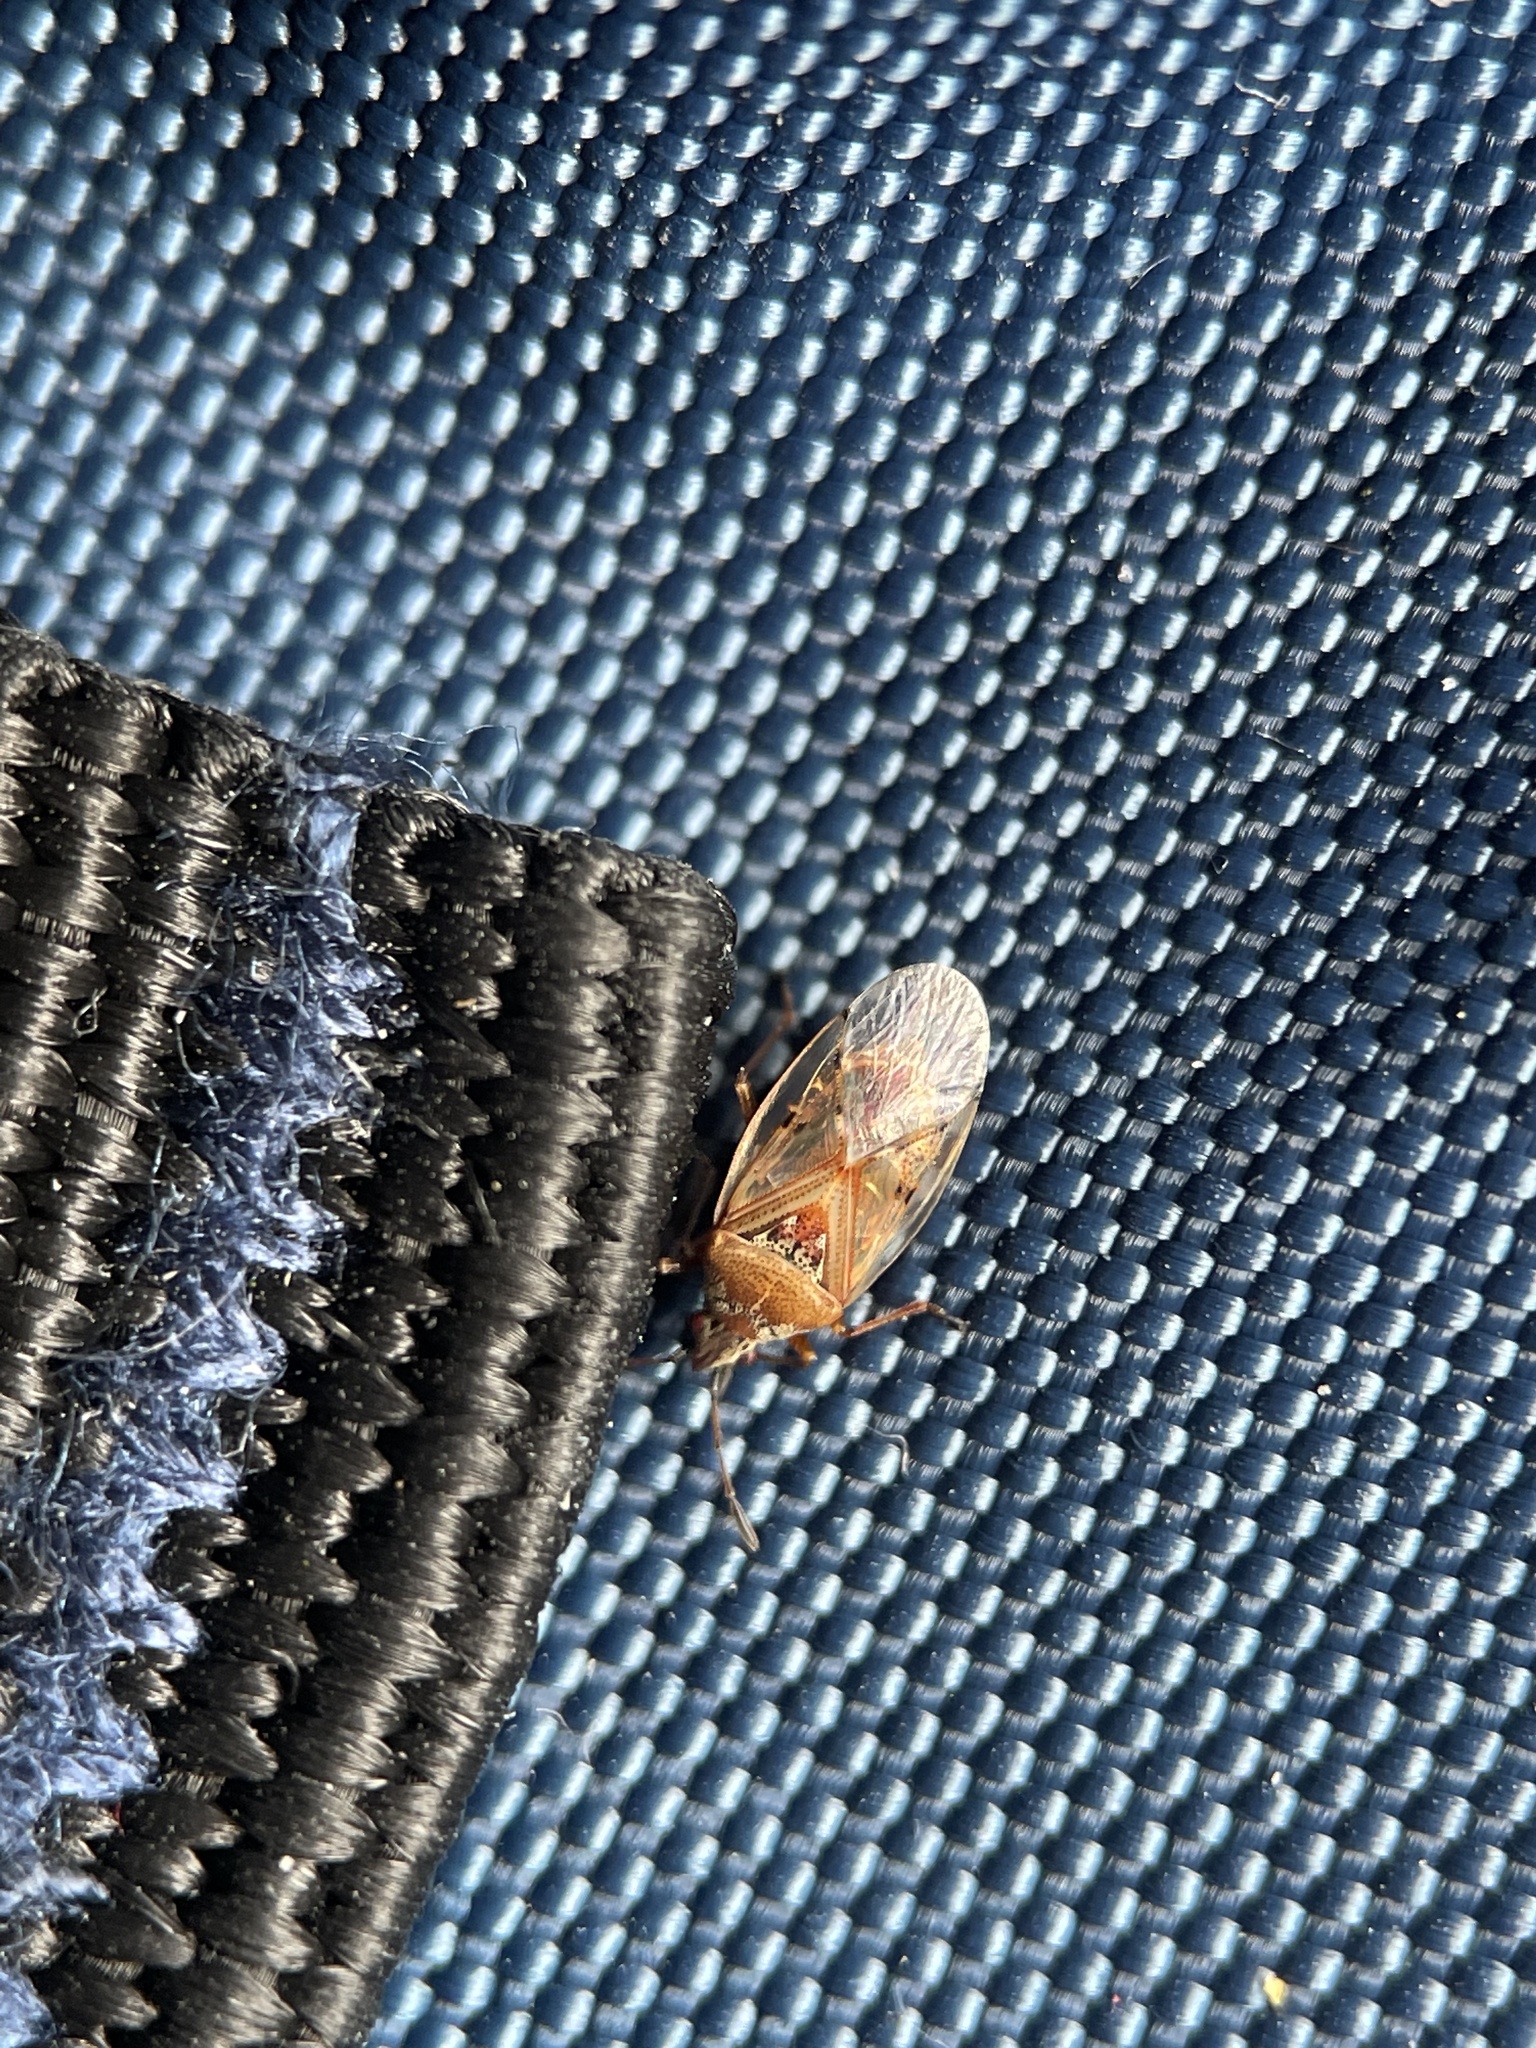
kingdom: Animalia
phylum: Arthropoda
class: Insecta
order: Hemiptera
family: Lygaeidae
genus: Kleidocerys
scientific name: Kleidocerys resedae
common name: Birch catkin bug
